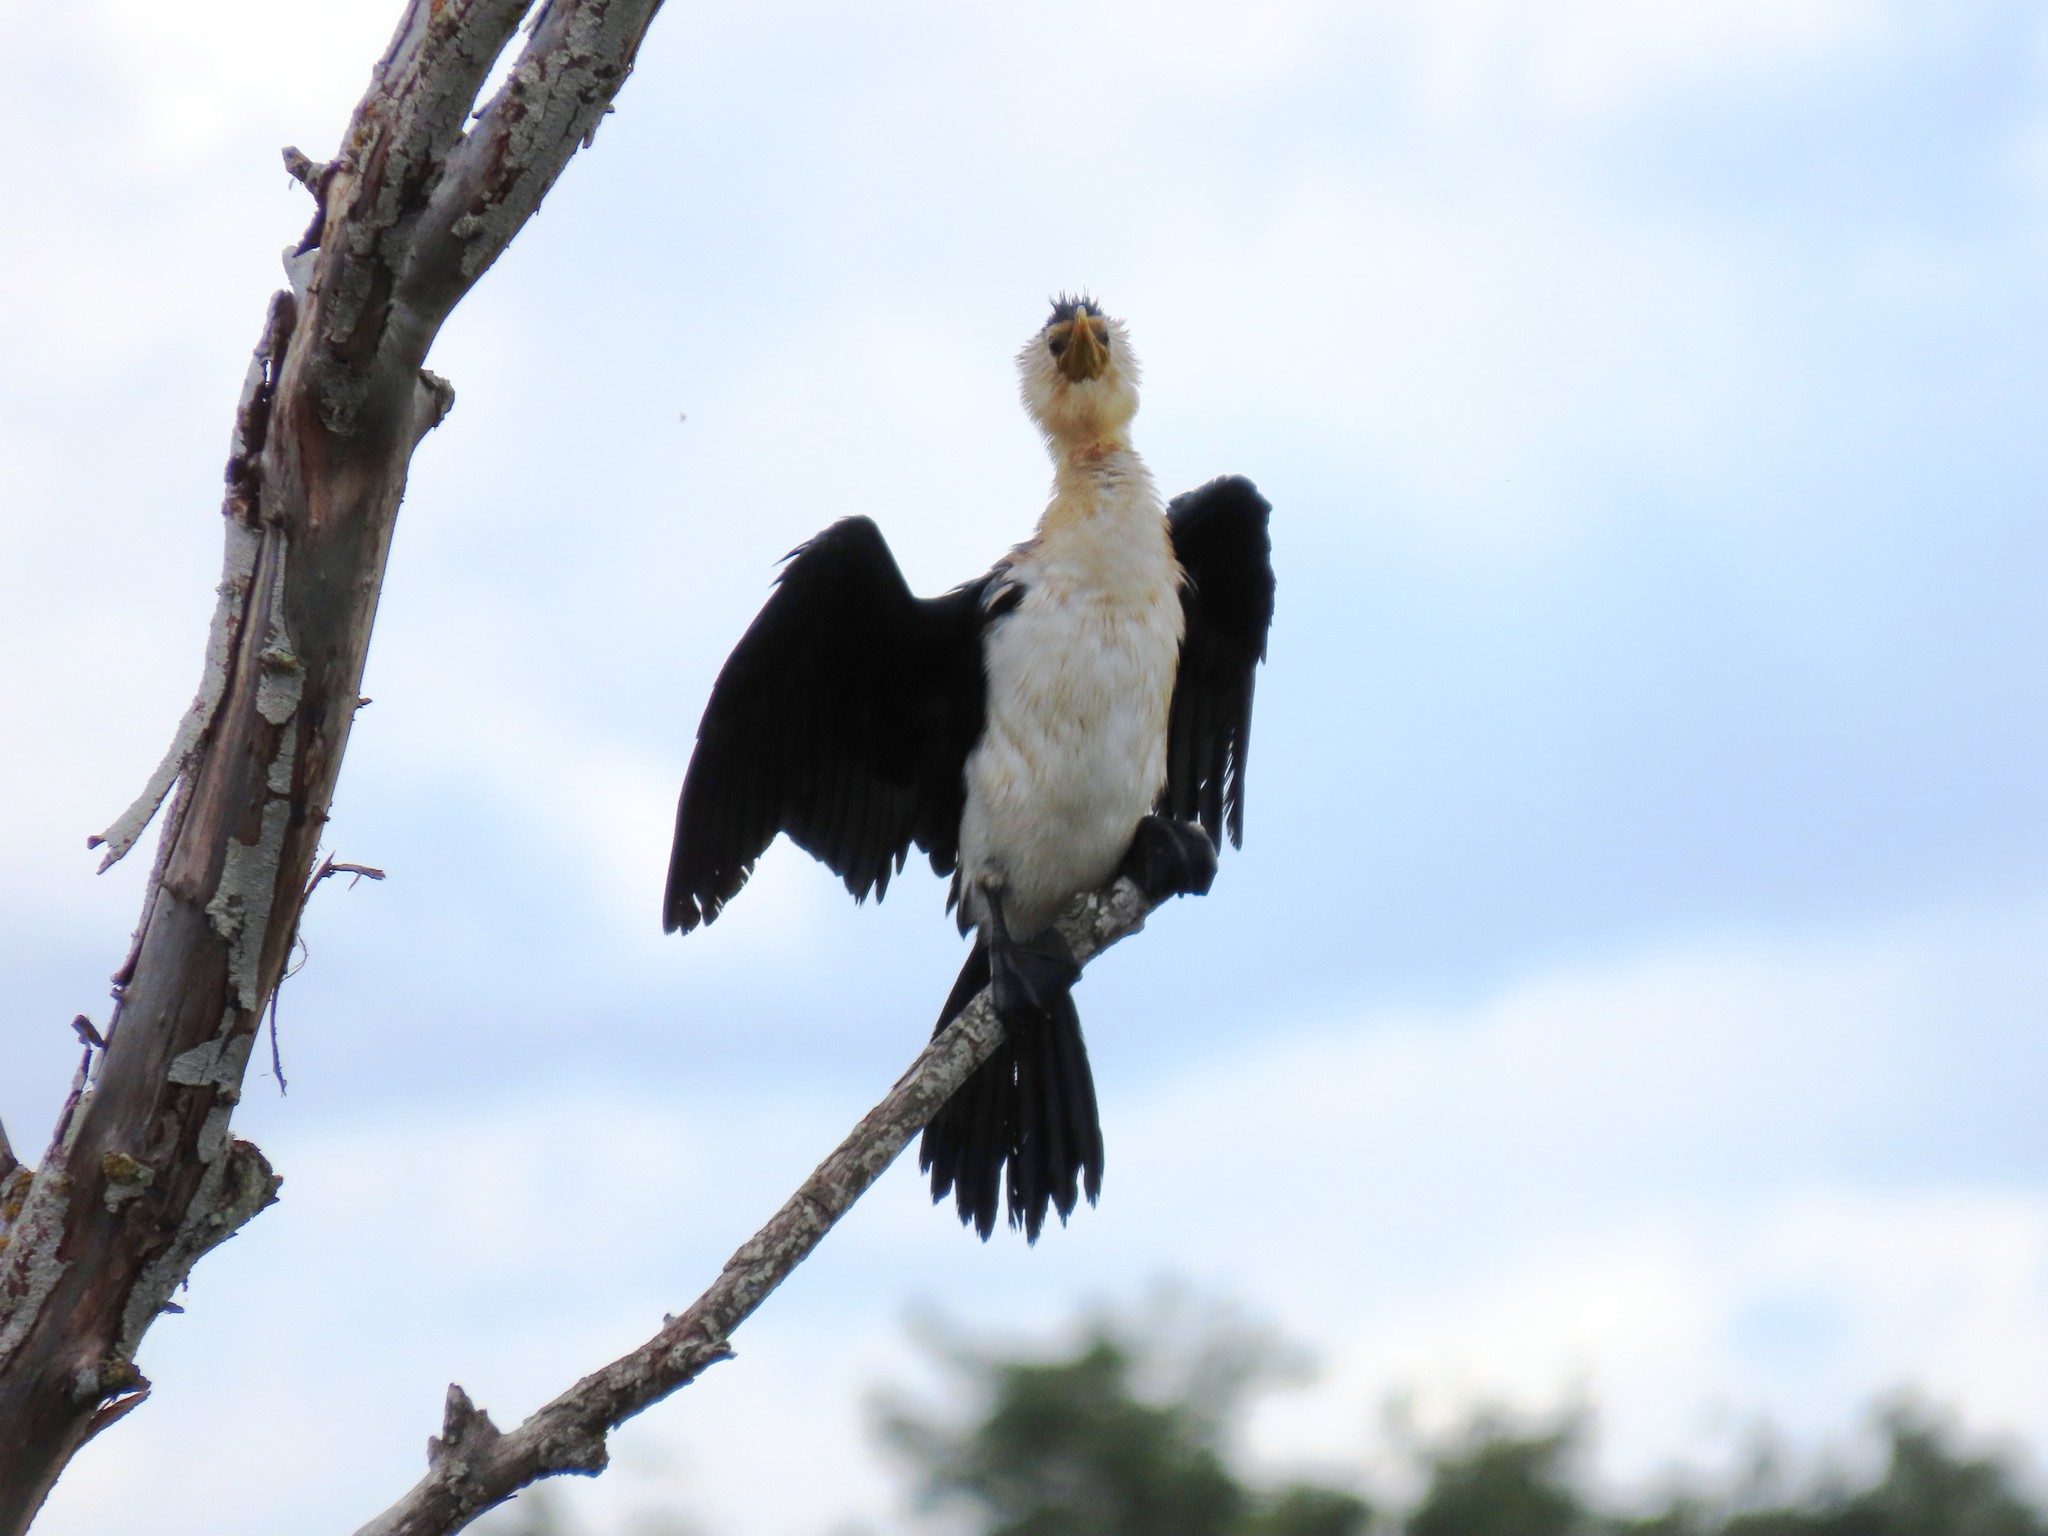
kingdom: Animalia
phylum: Chordata
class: Aves
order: Suliformes
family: Phalacrocoracidae
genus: Microcarbo
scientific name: Microcarbo melanoleucos
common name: Little pied cormorant
